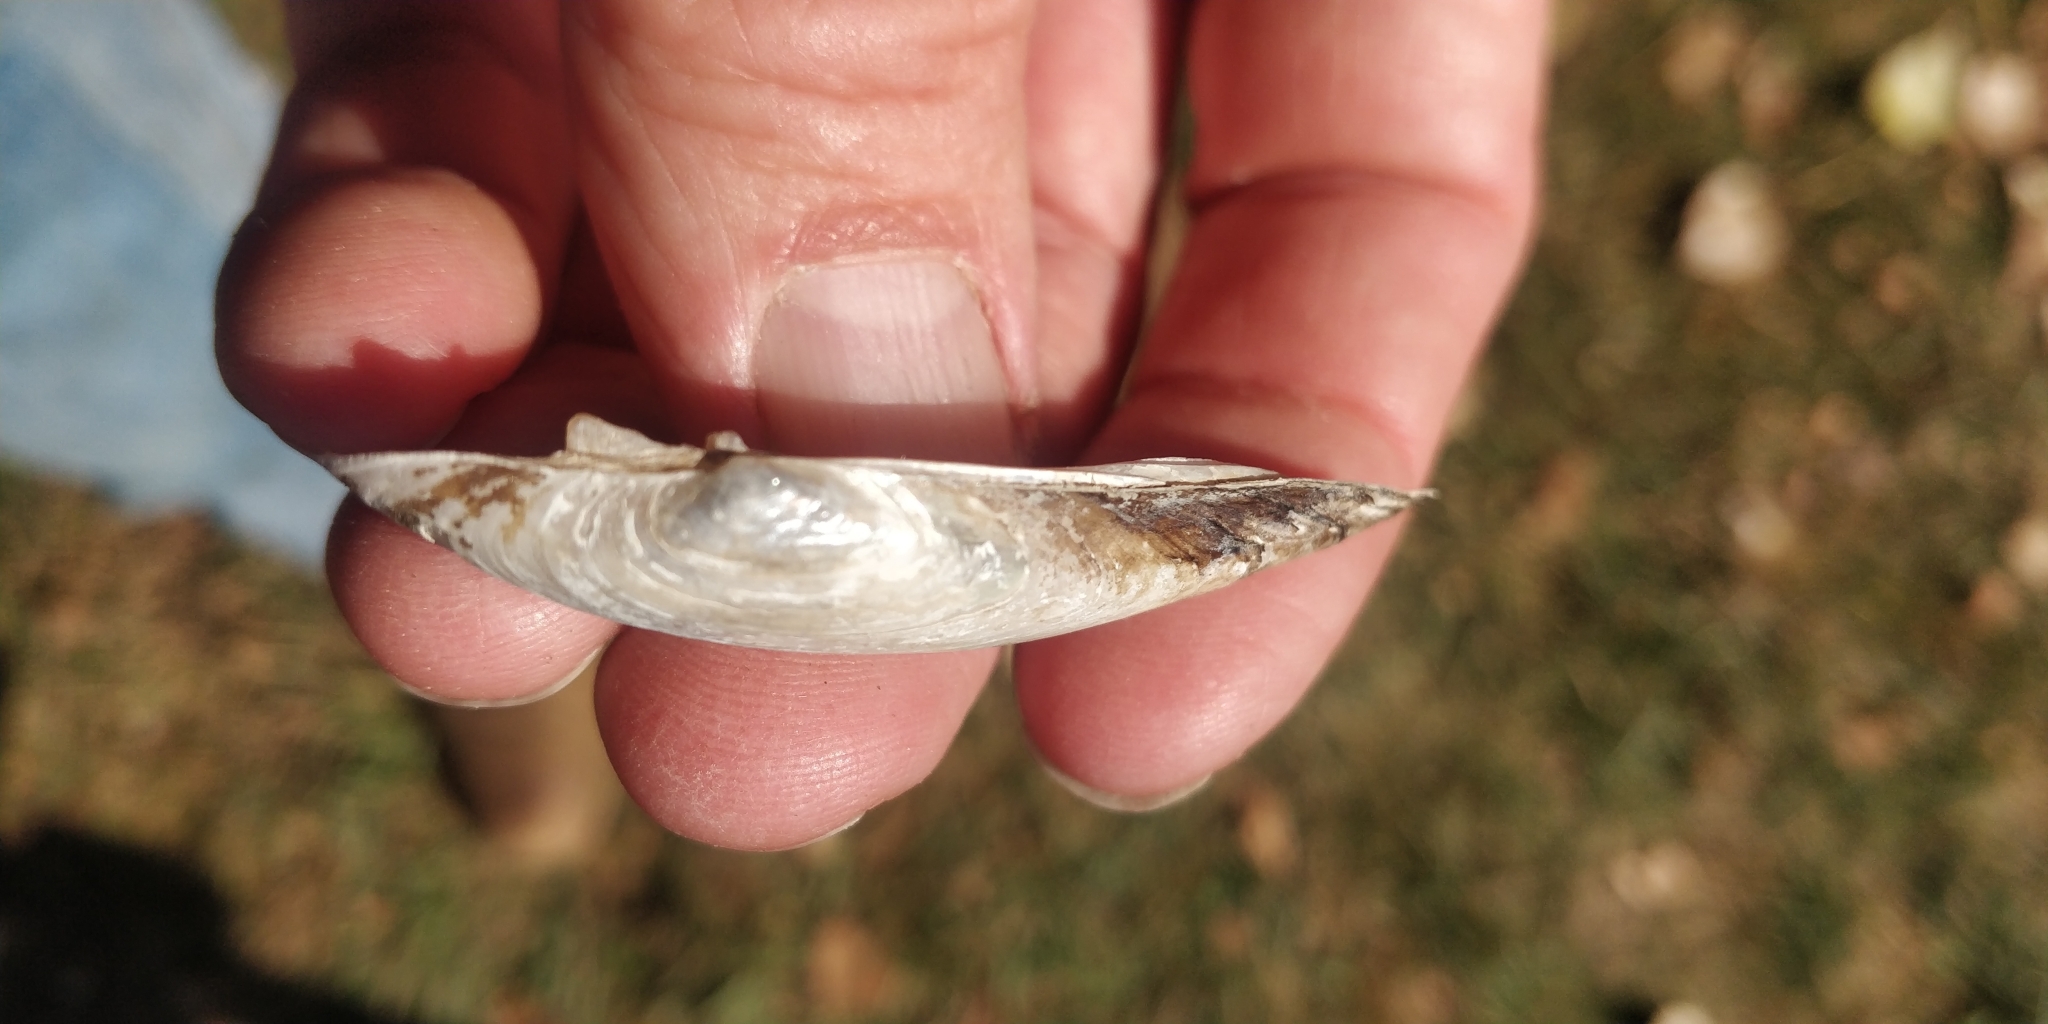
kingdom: Animalia
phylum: Mollusca
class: Bivalvia
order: Unionida
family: Unionidae
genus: Lampsilis
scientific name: Lampsilis teres
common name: Yellow sandshell
